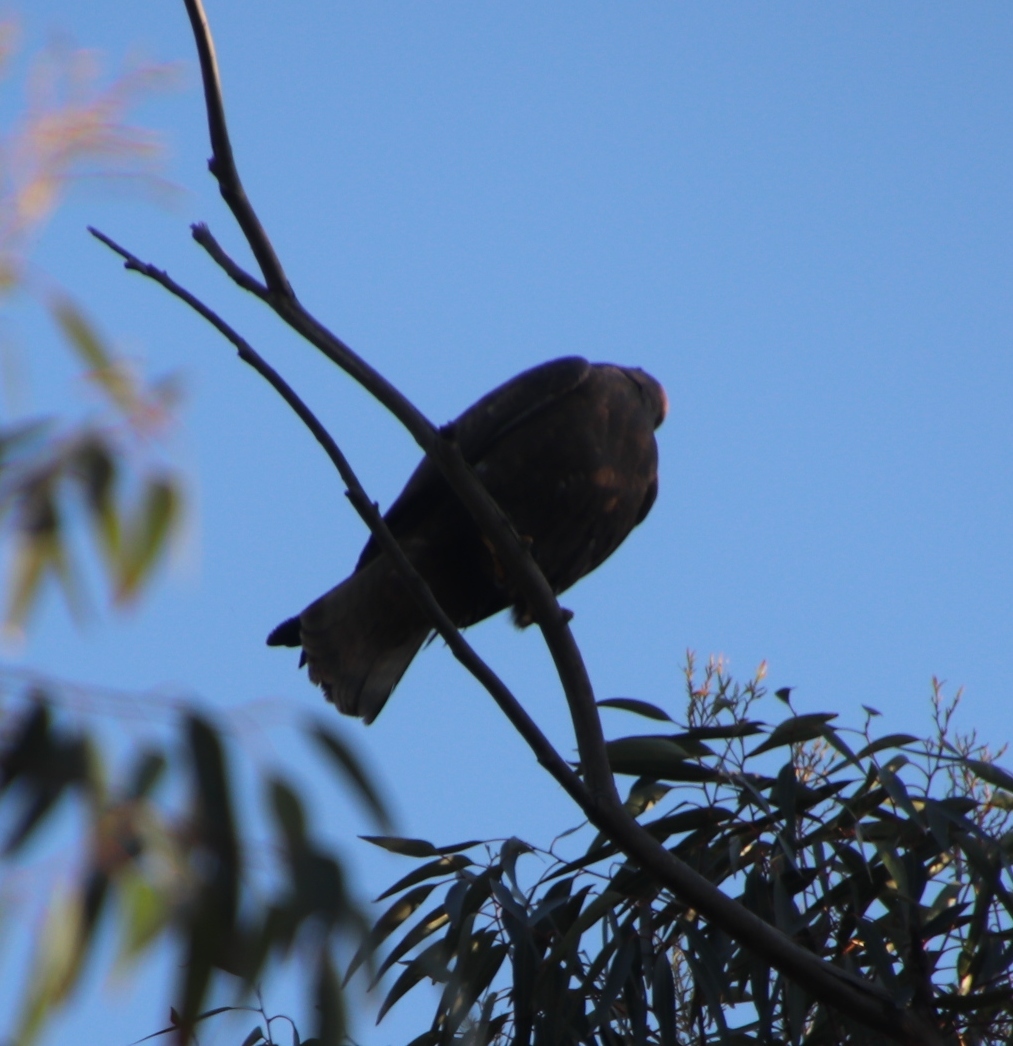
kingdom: Animalia
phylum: Chordata
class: Aves
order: Accipitriformes
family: Accipitridae
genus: Buteo
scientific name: Buteo buteo
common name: Common buzzard
